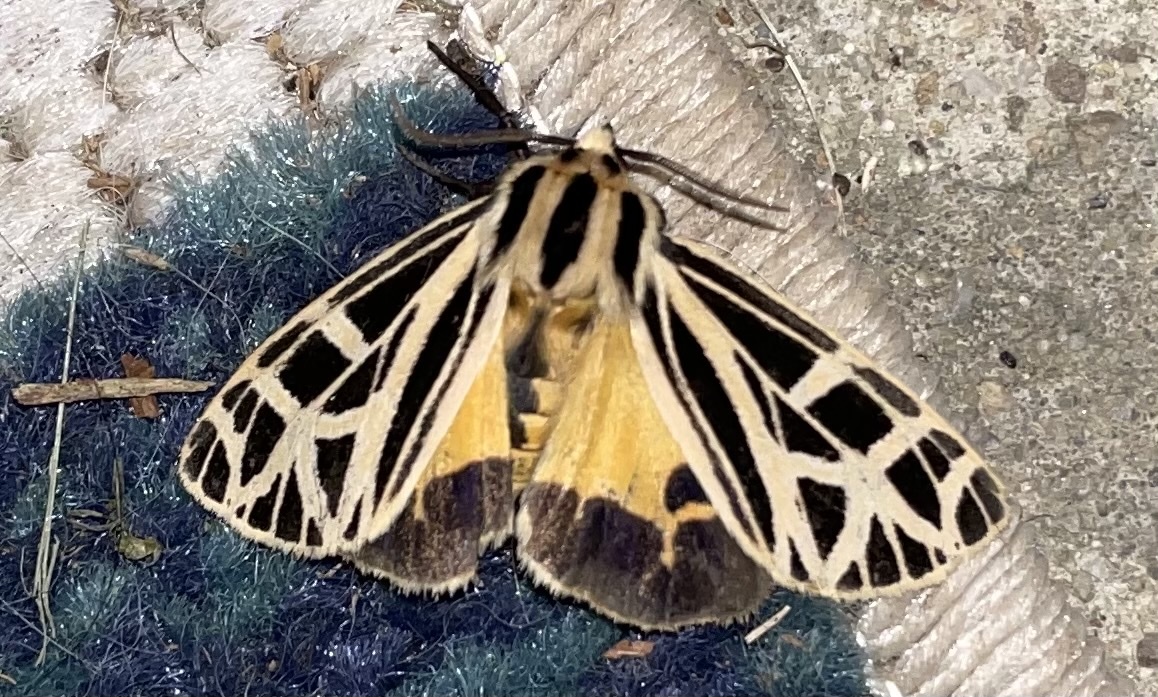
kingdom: Animalia
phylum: Arthropoda
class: Insecta
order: Lepidoptera
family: Erebidae
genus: Apantesis
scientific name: Apantesis
